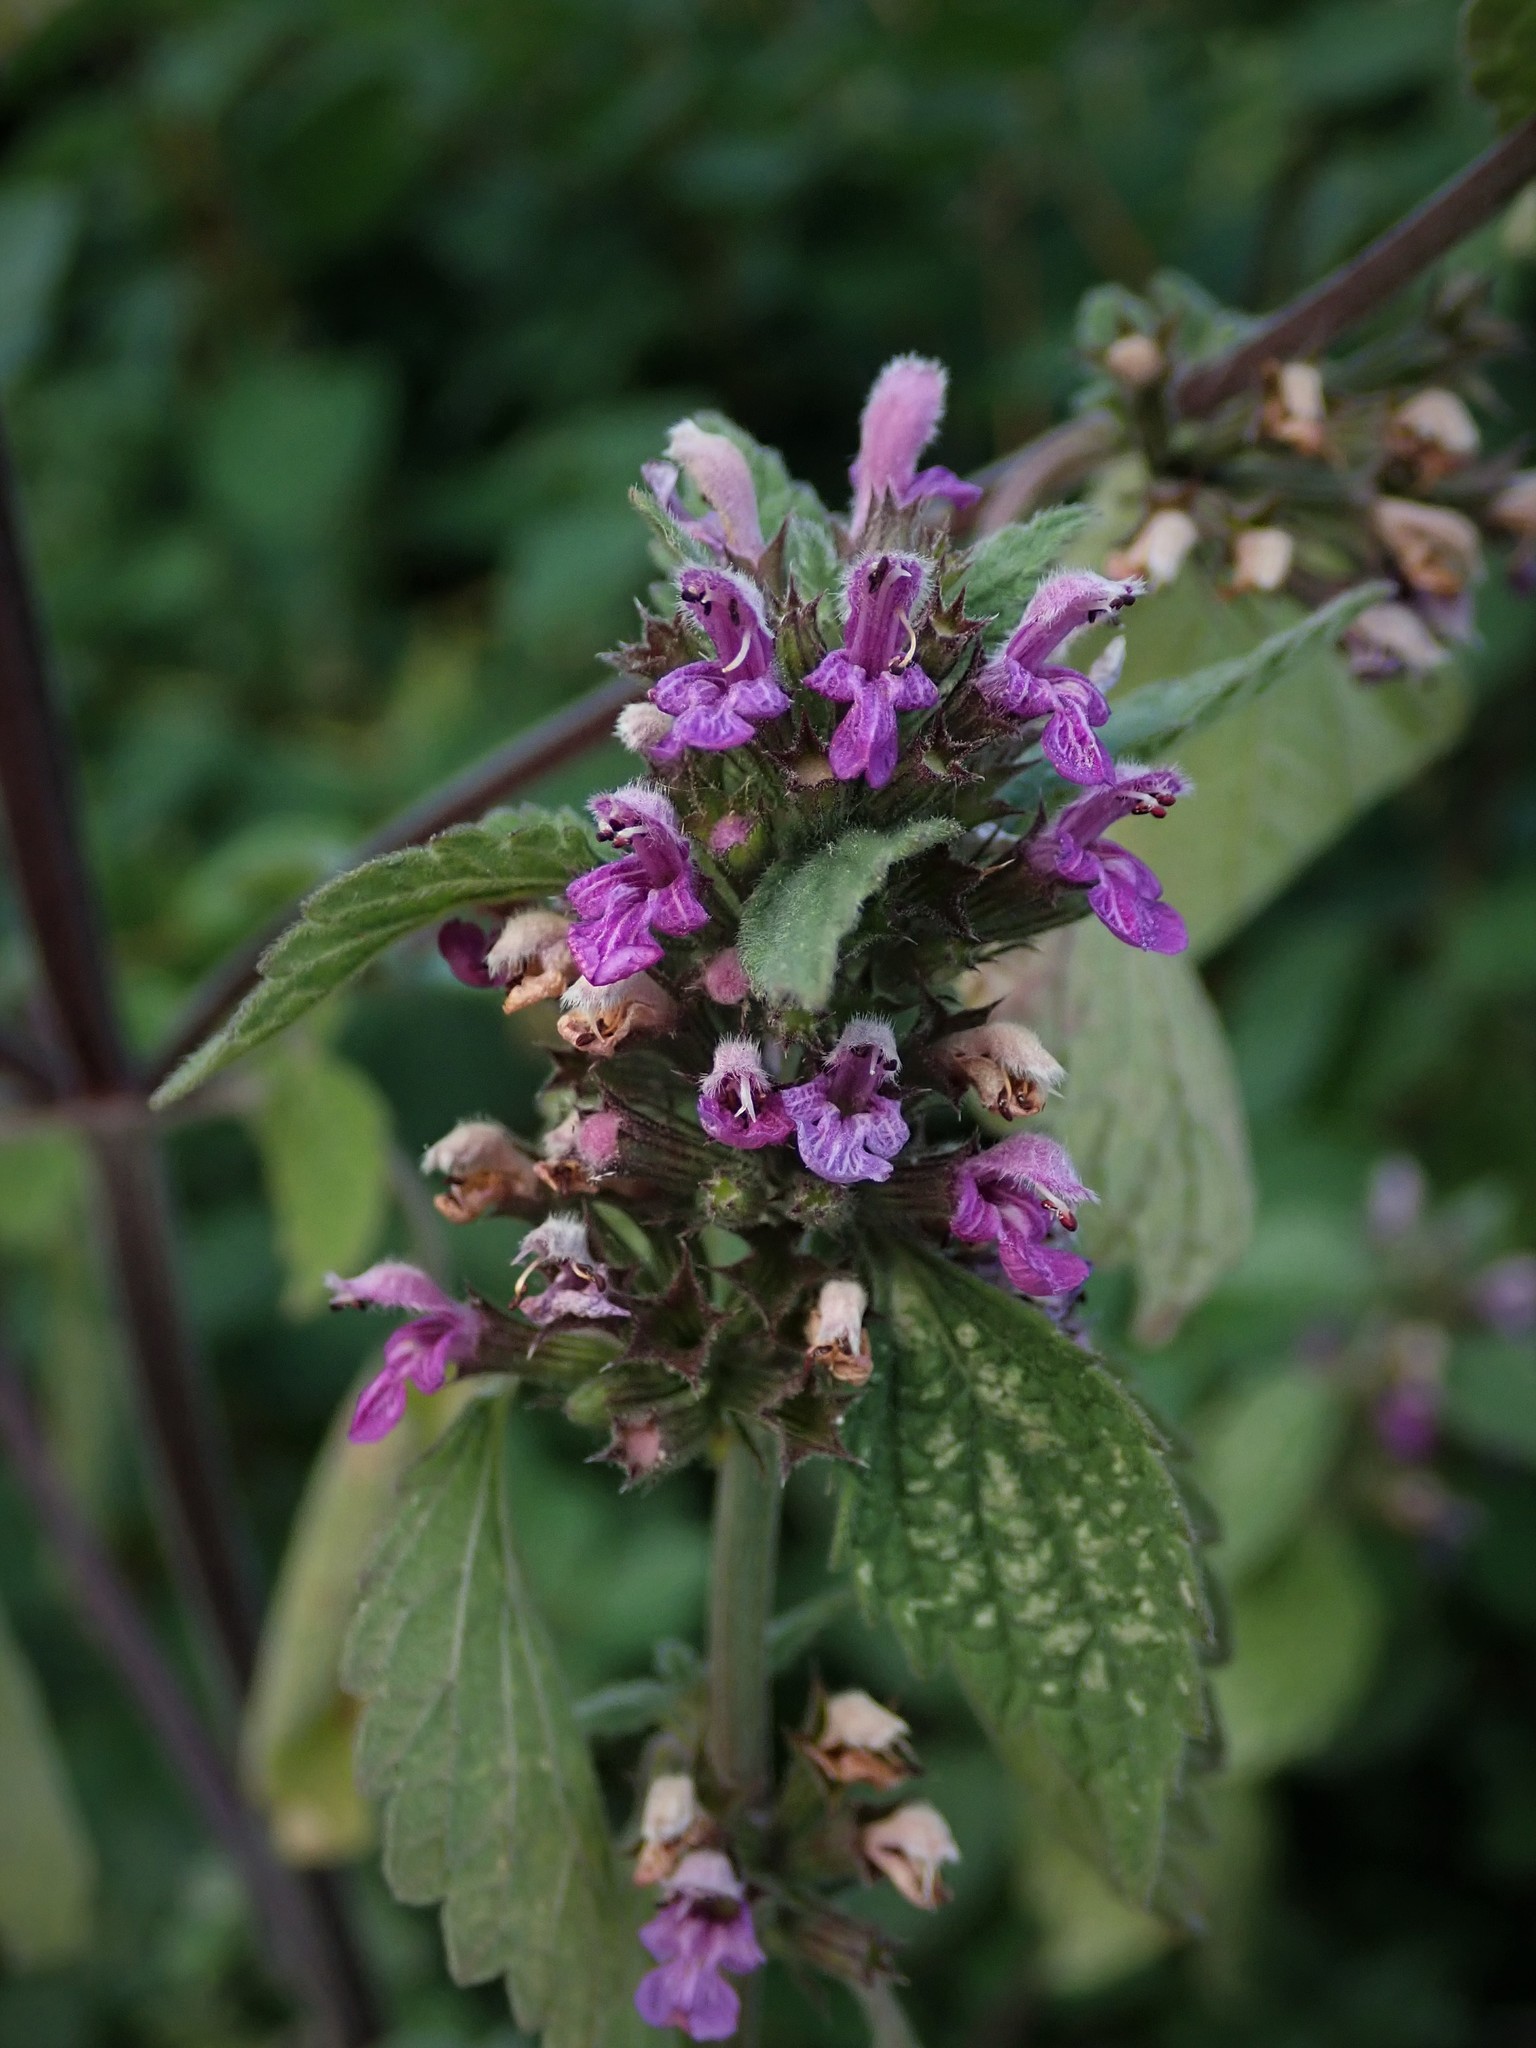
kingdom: Plantae
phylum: Tracheophyta
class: Magnoliopsida
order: Lamiales
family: Lamiaceae
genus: Ballota
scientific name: Ballota nigra
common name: Black horehound
